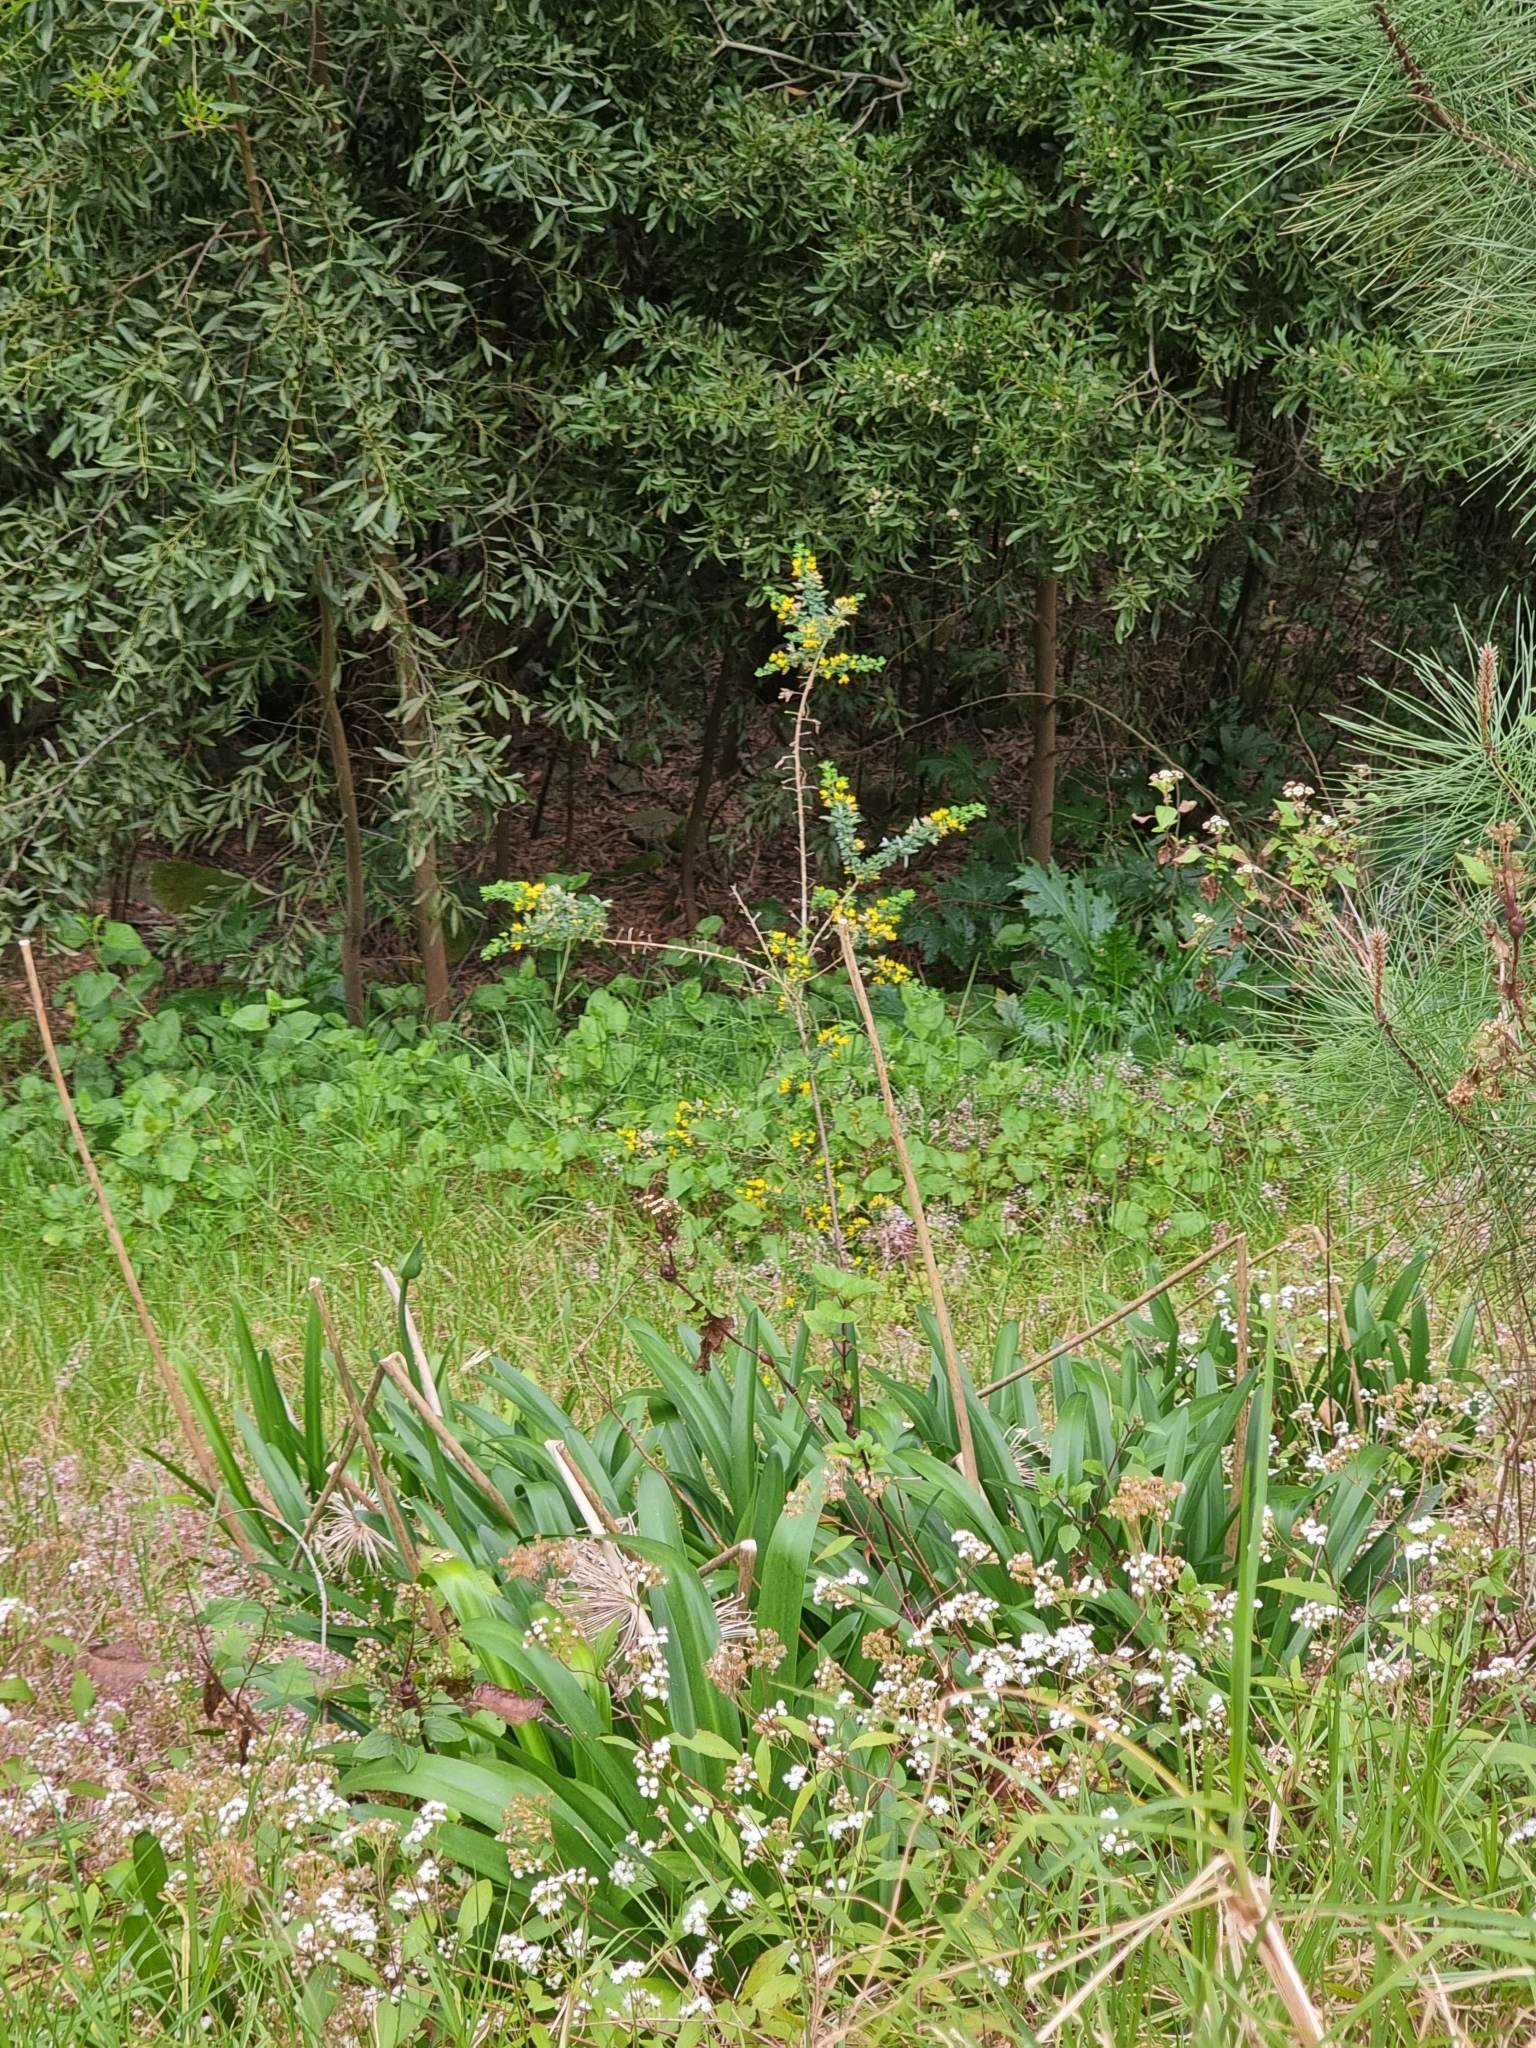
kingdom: Plantae
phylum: Tracheophyta
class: Magnoliopsida
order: Fabales
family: Fabaceae
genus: Genista
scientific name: Genista maderensis
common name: Madeira dyer's greenweed
